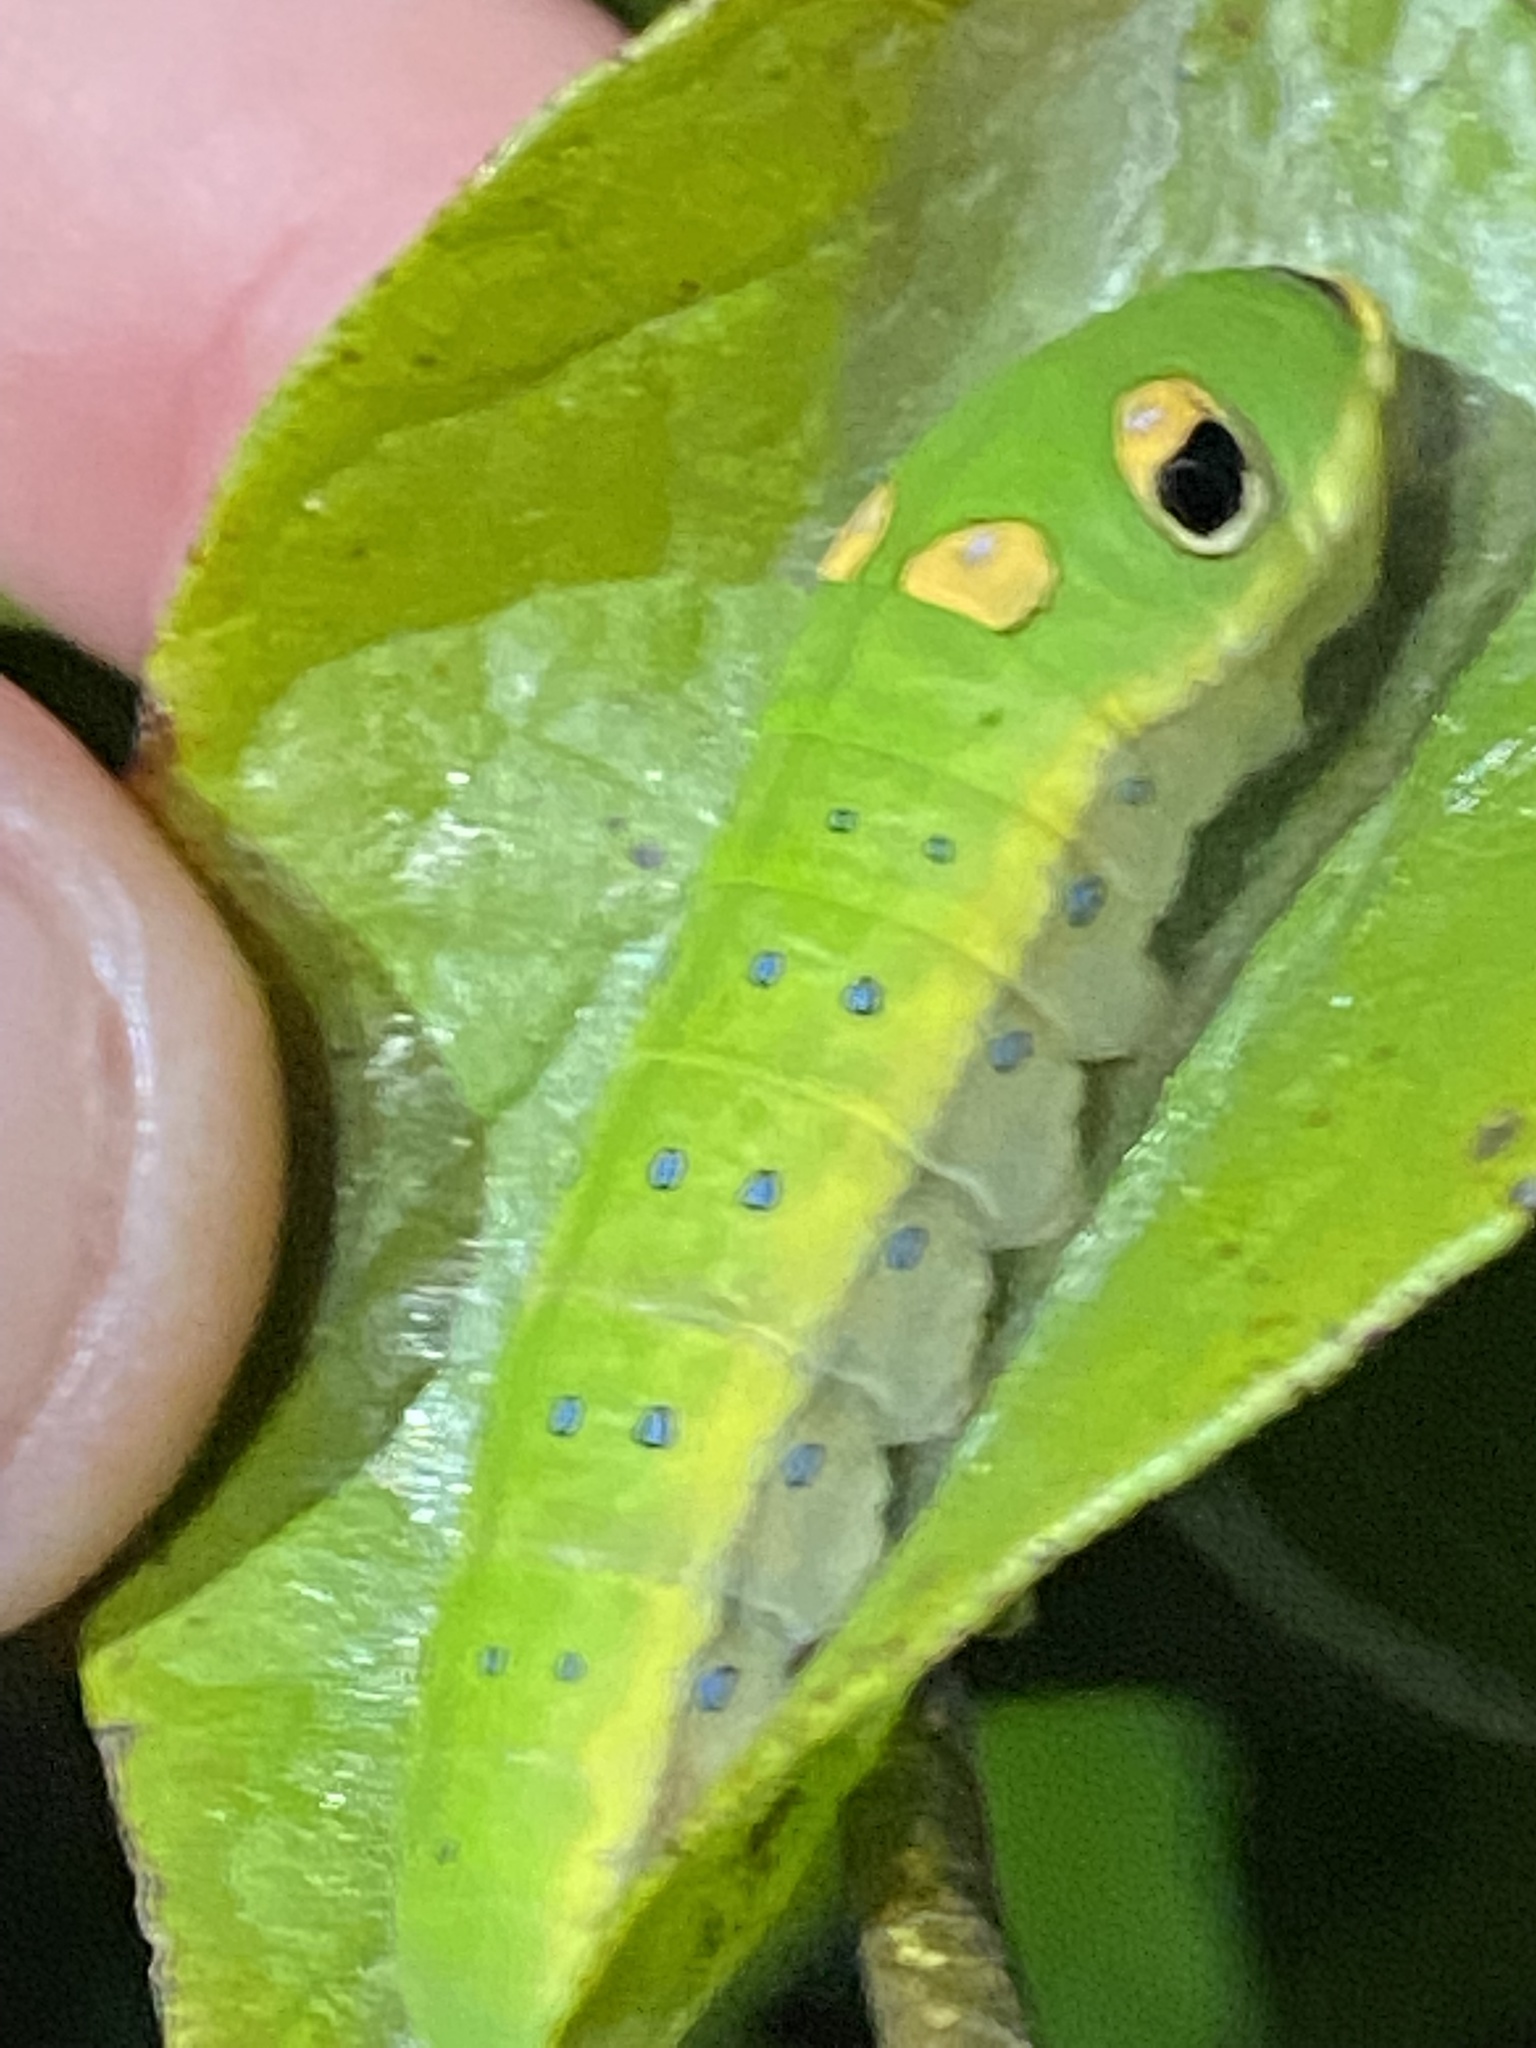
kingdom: Animalia
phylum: Arthropoda
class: Insecta
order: Lepidoptera
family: Papilionidae
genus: Papilio
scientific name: Papilio troilus
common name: Spicebush swallowtail
